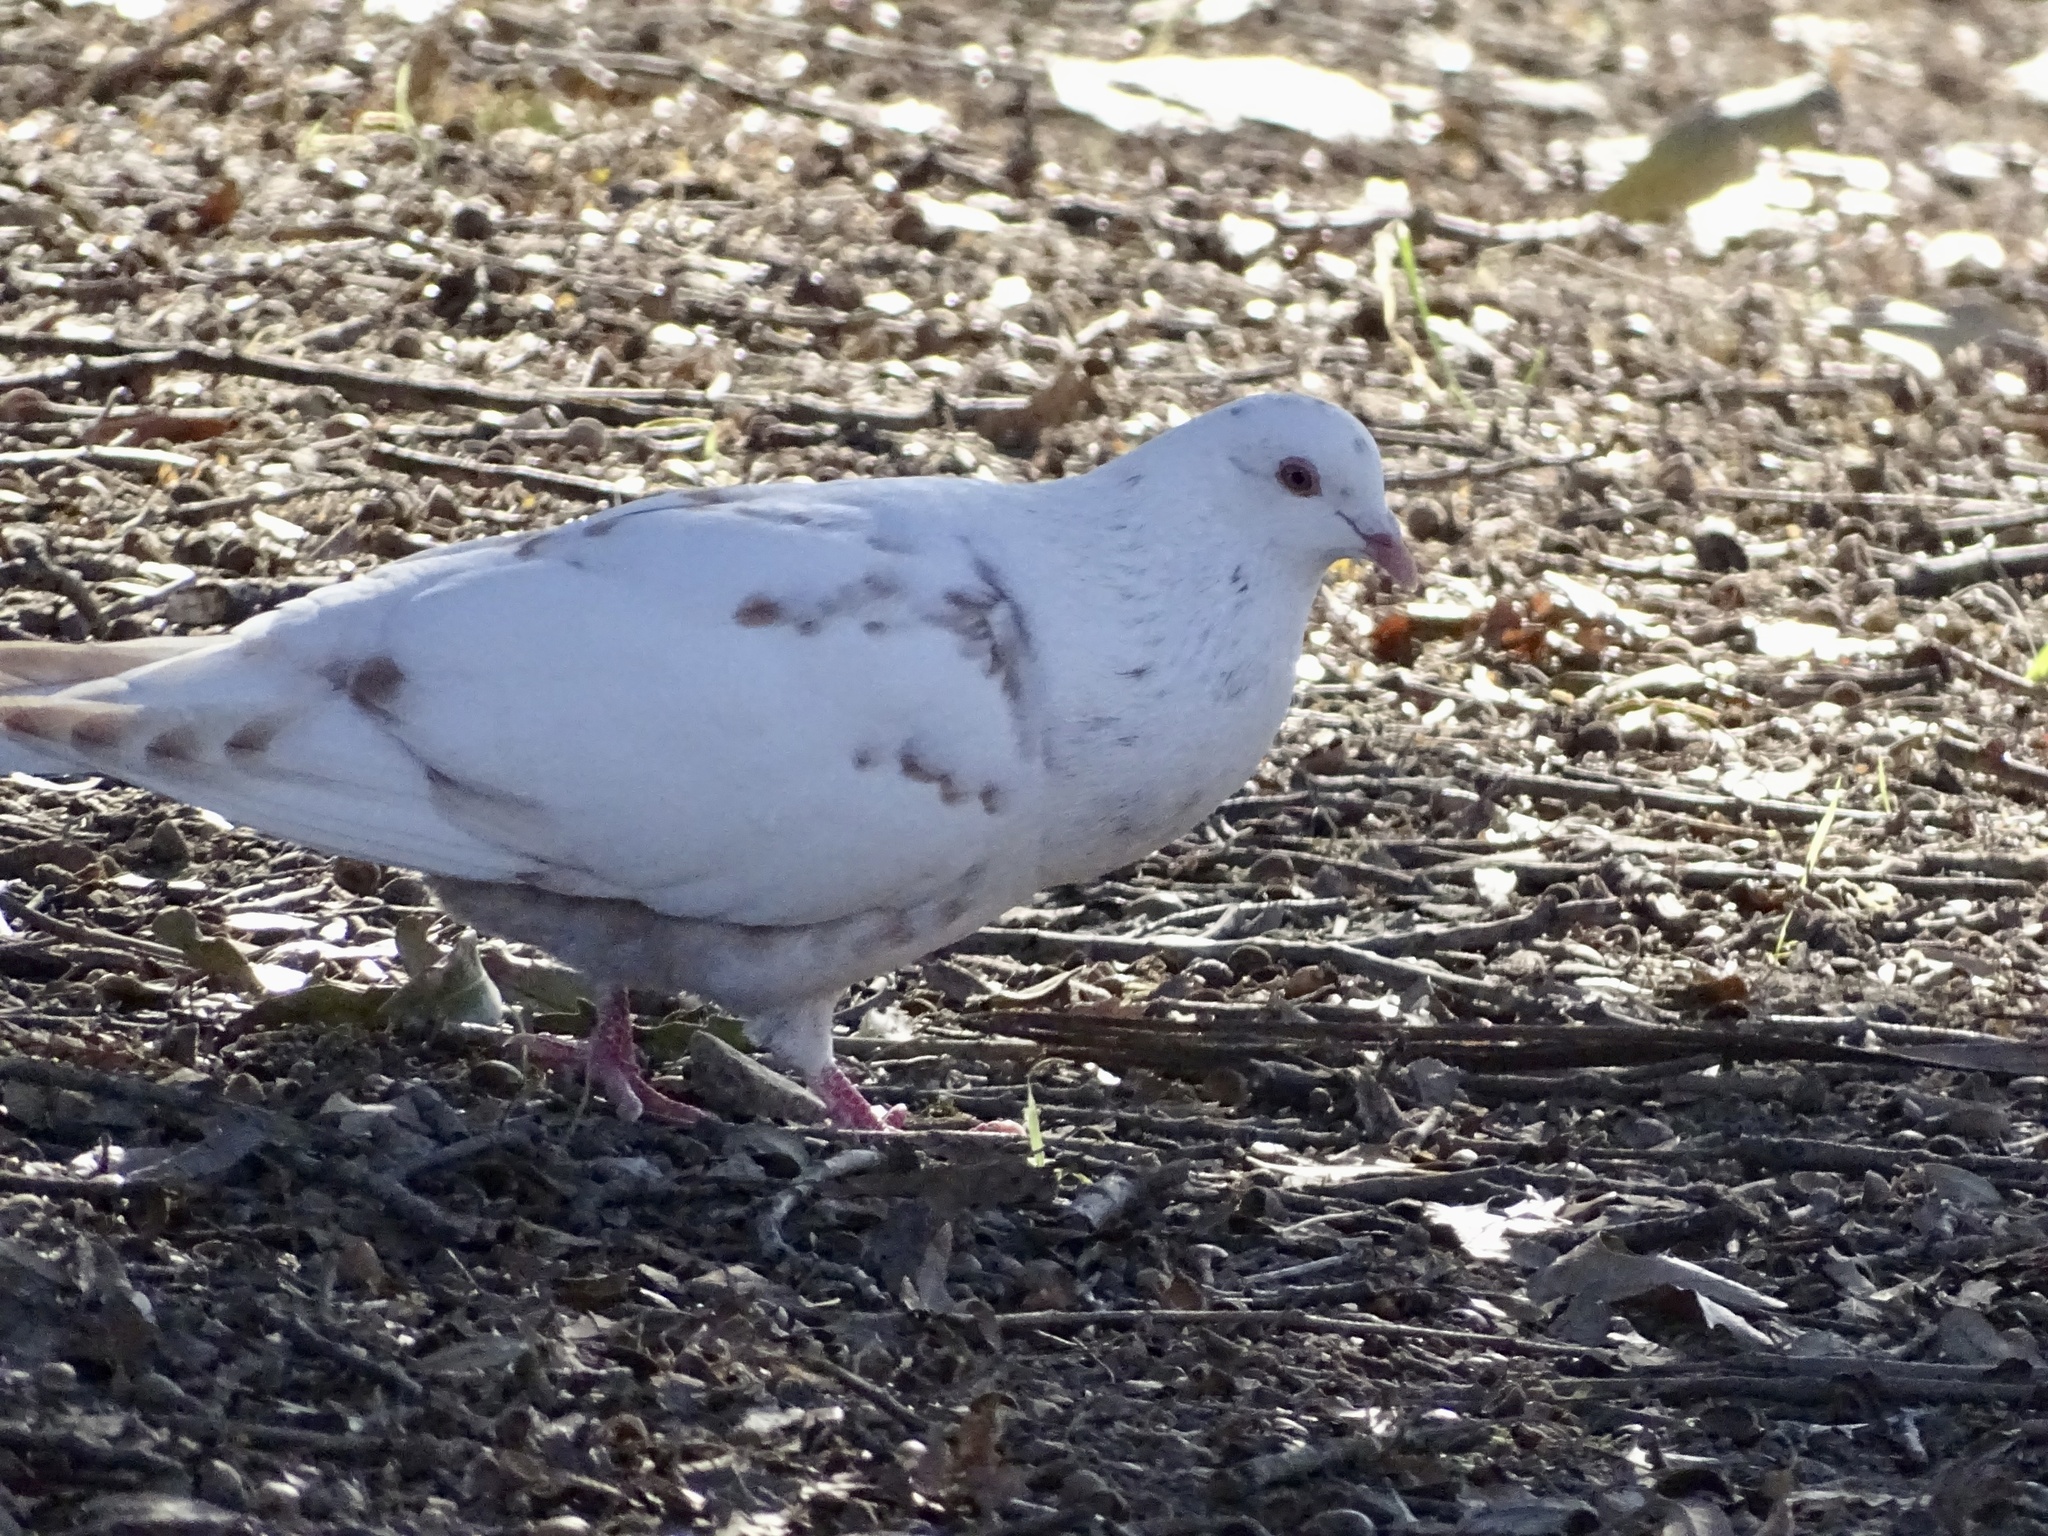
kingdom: Animalia
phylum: Chordata
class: Aves
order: Columbiformes
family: Columbidae
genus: Columba
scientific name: Columba livia
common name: Rock pigeon
